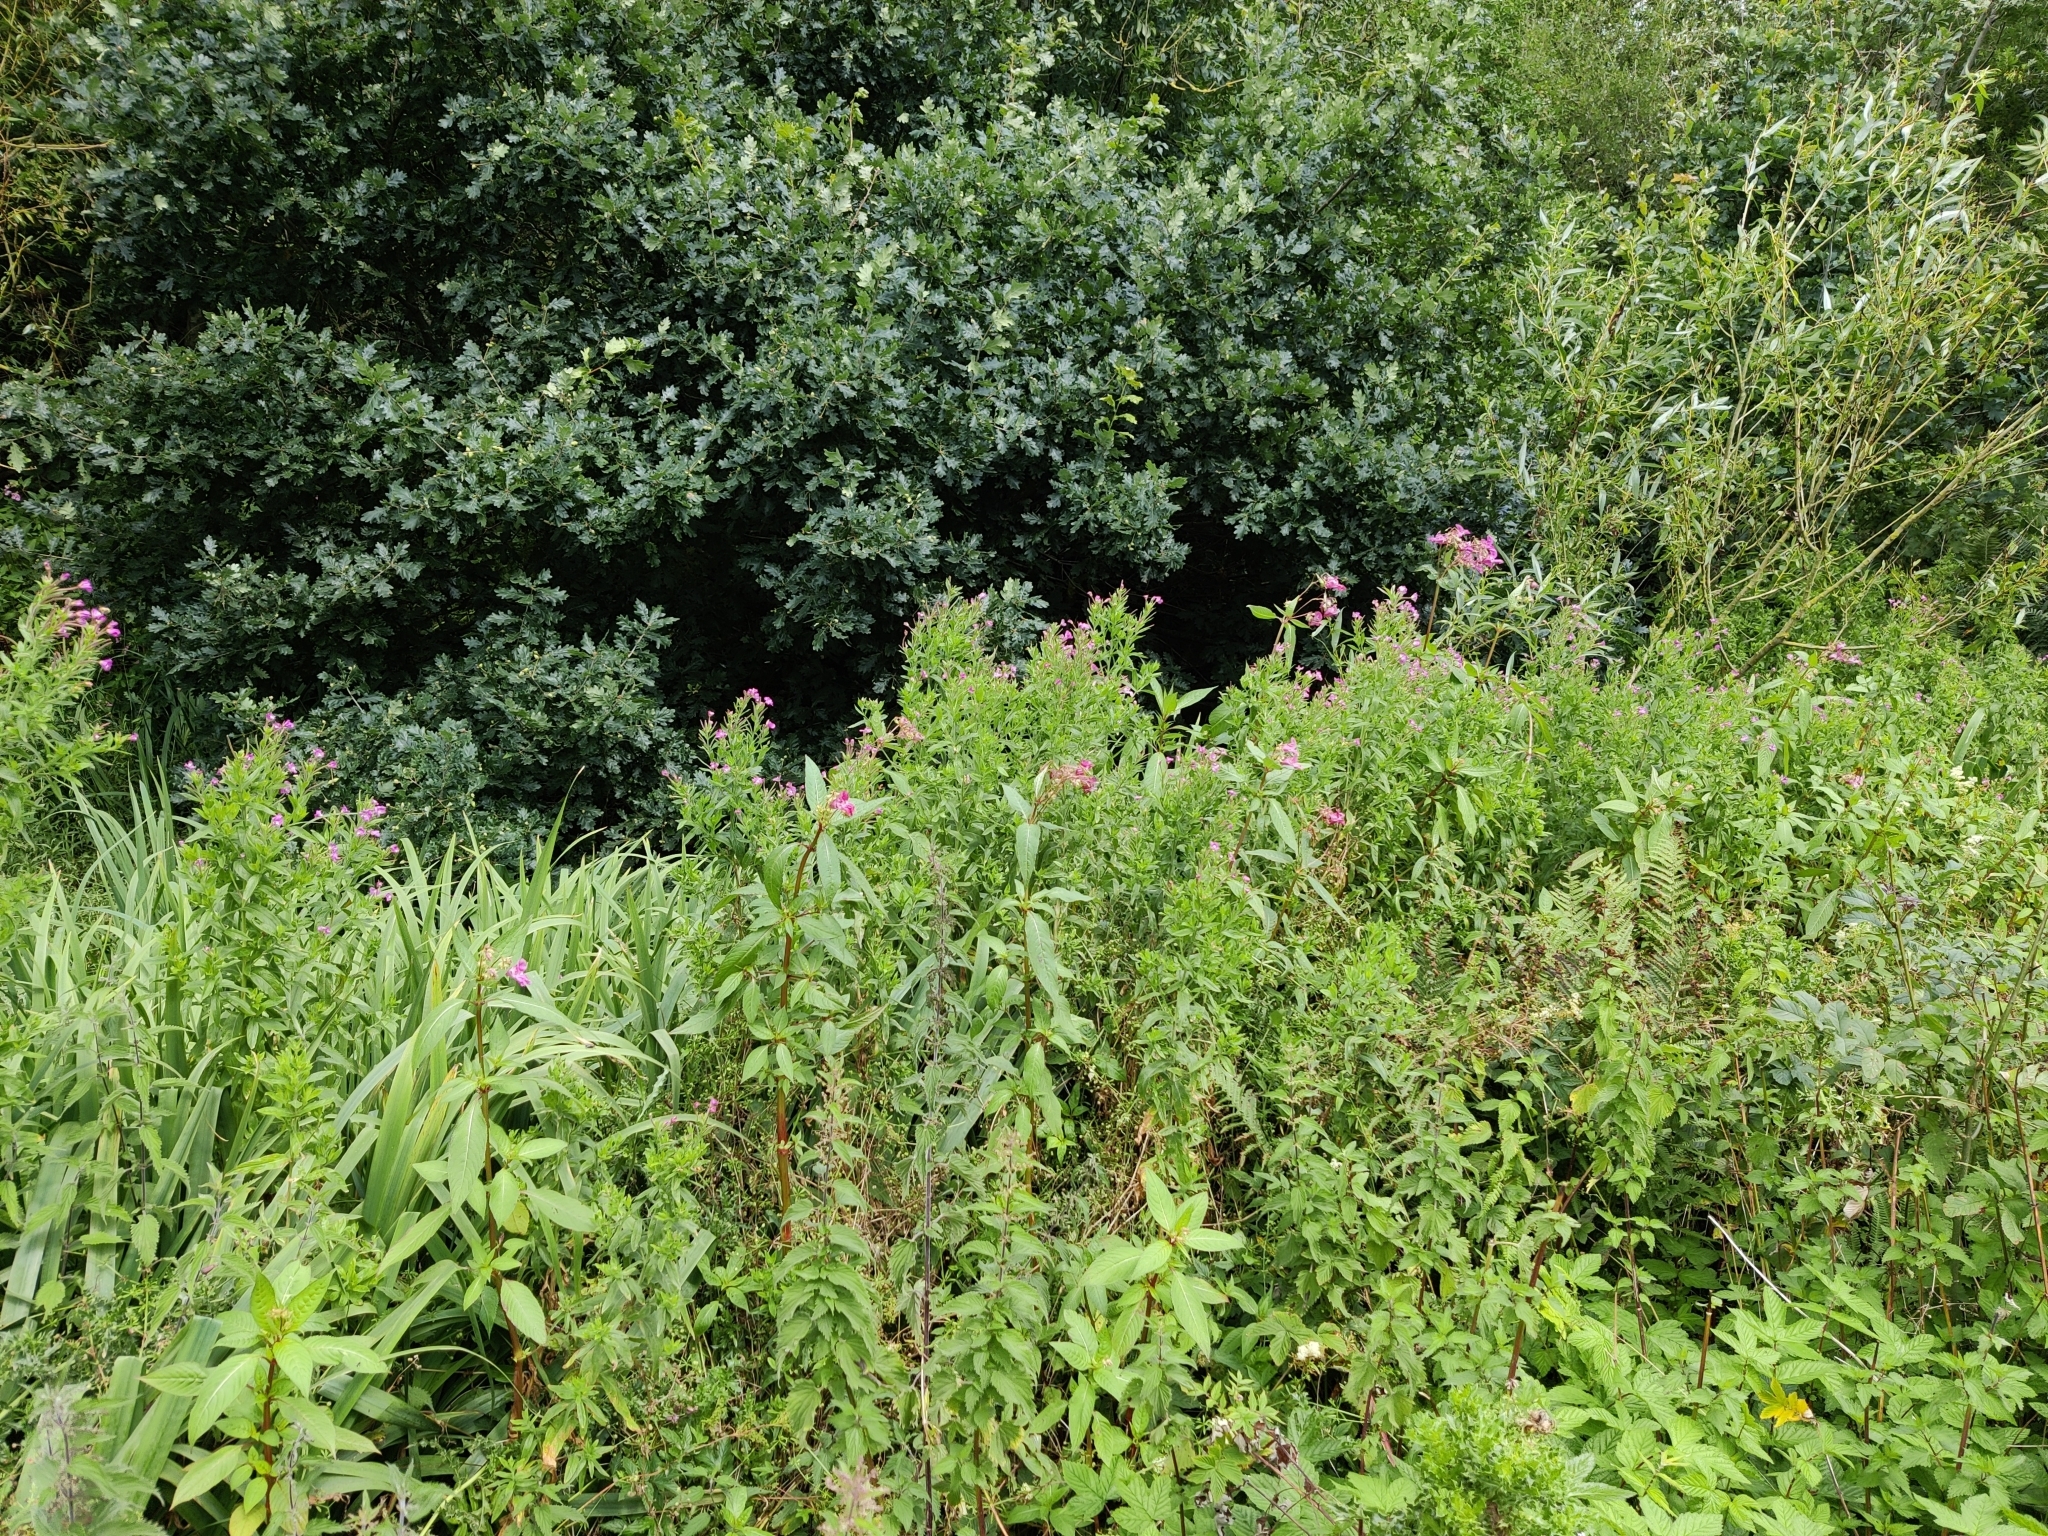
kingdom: Plantae
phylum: Tracheophyta
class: Magnoliopsida
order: Ericales
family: Balsaminaceae
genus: Impatiens
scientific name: Impatiens glandulifera
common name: Himalayan balsam
